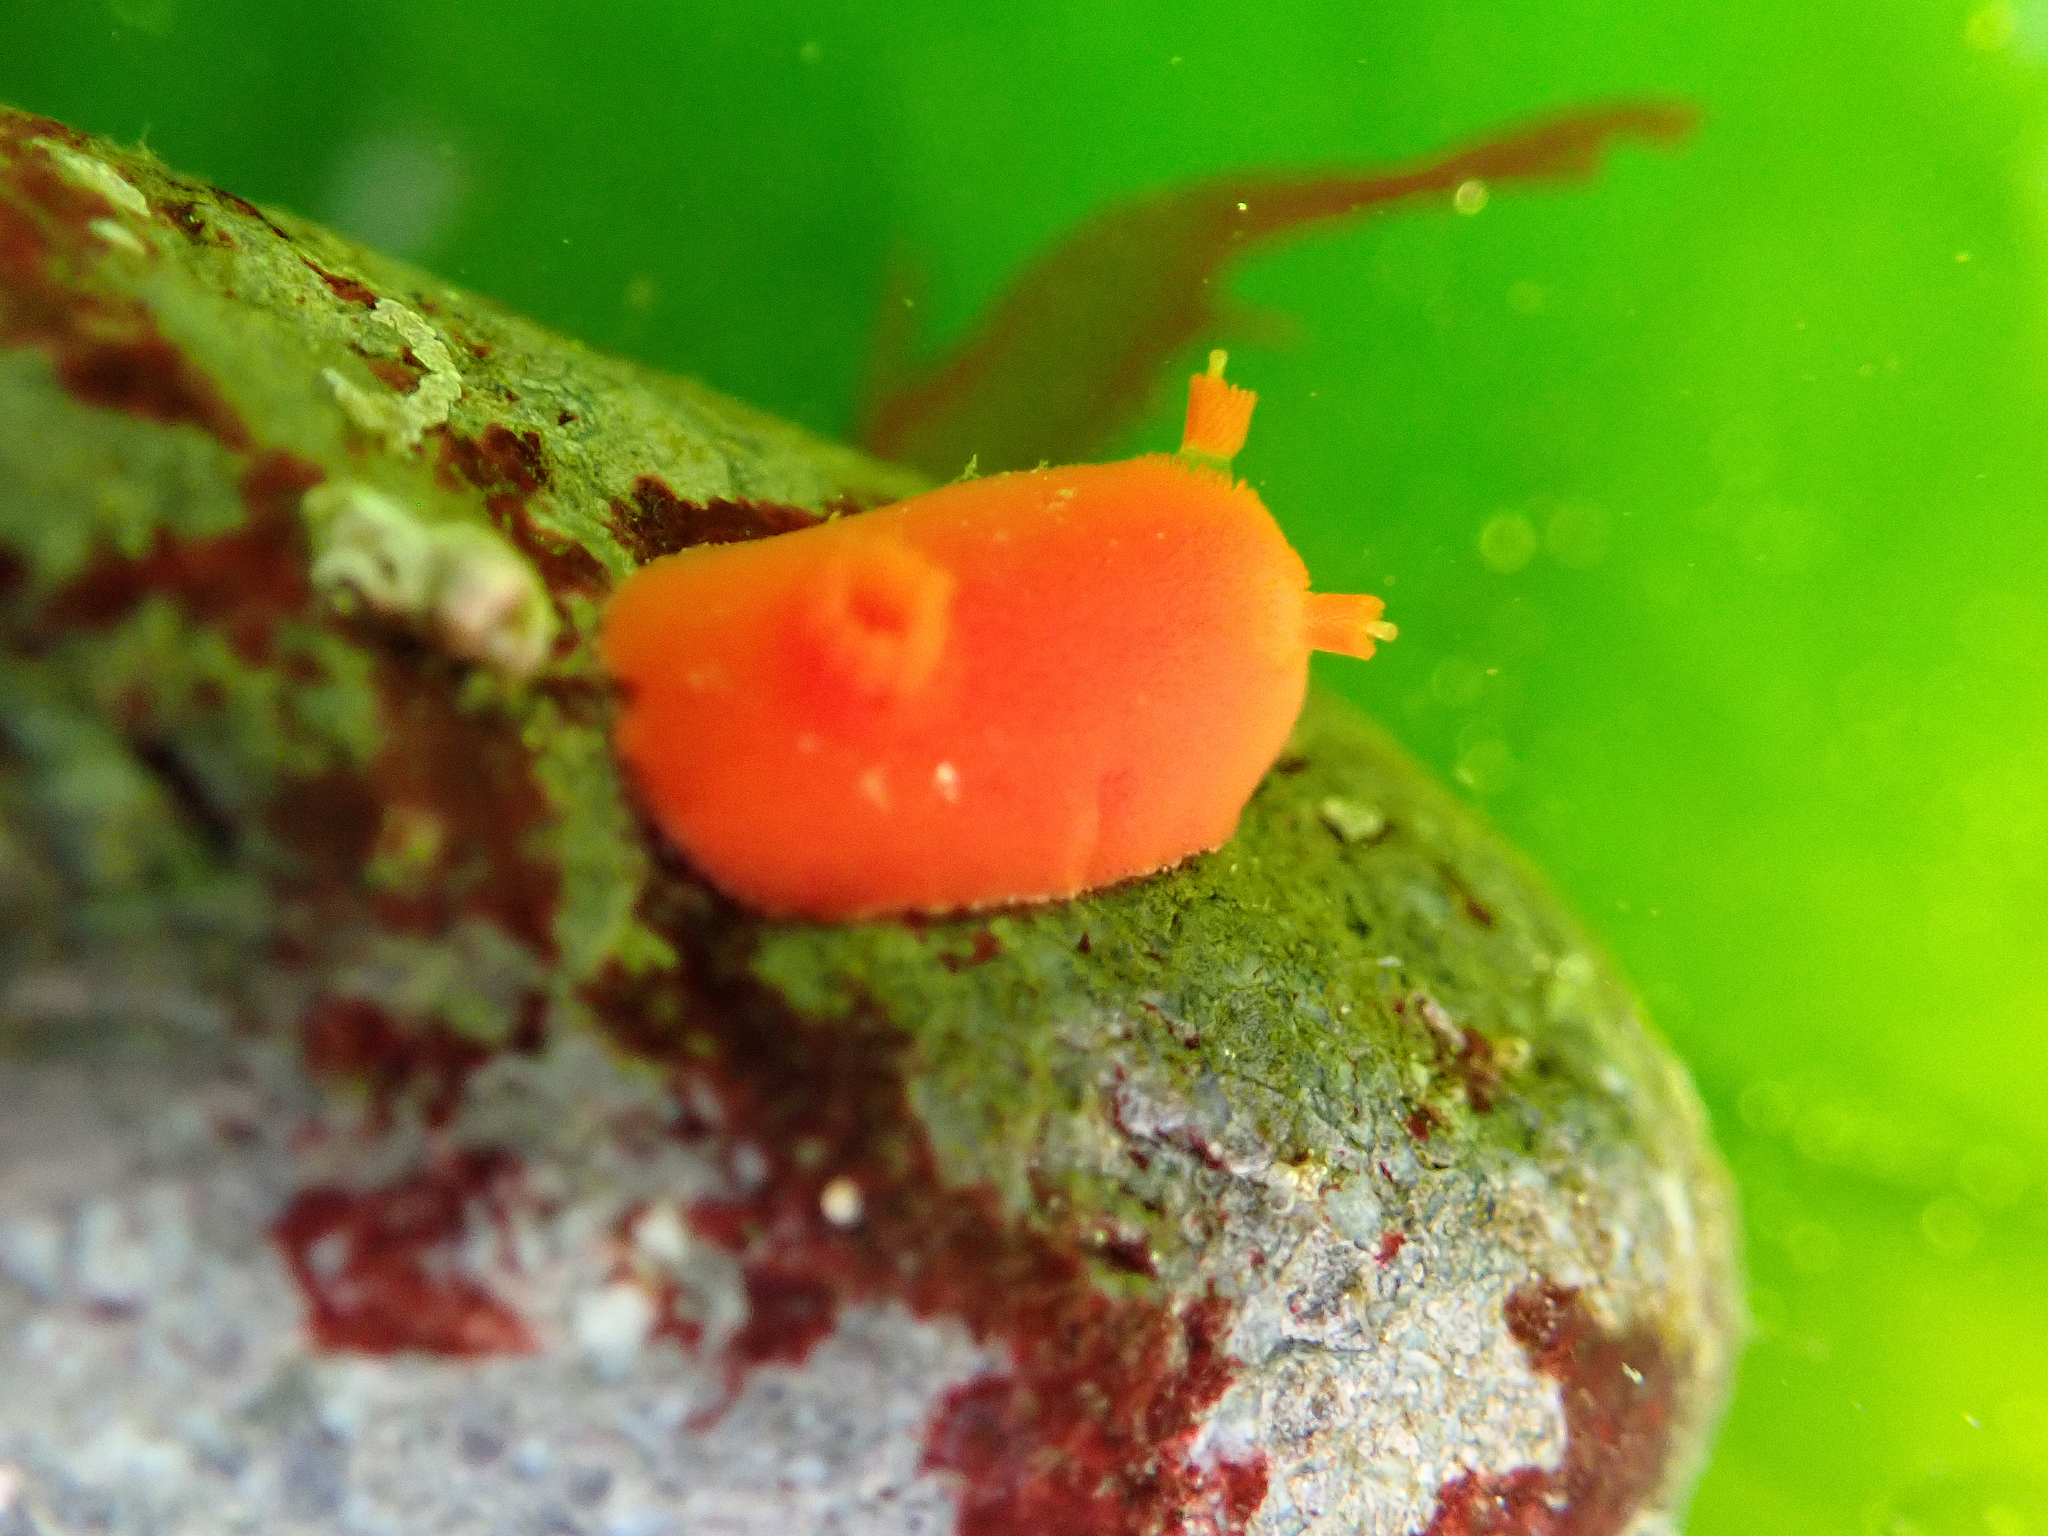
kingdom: Animalia
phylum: Mollusca
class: Gastropoda
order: Nudibranchia
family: Discodorididae
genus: Rostanga
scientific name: Rostanga pulchra
